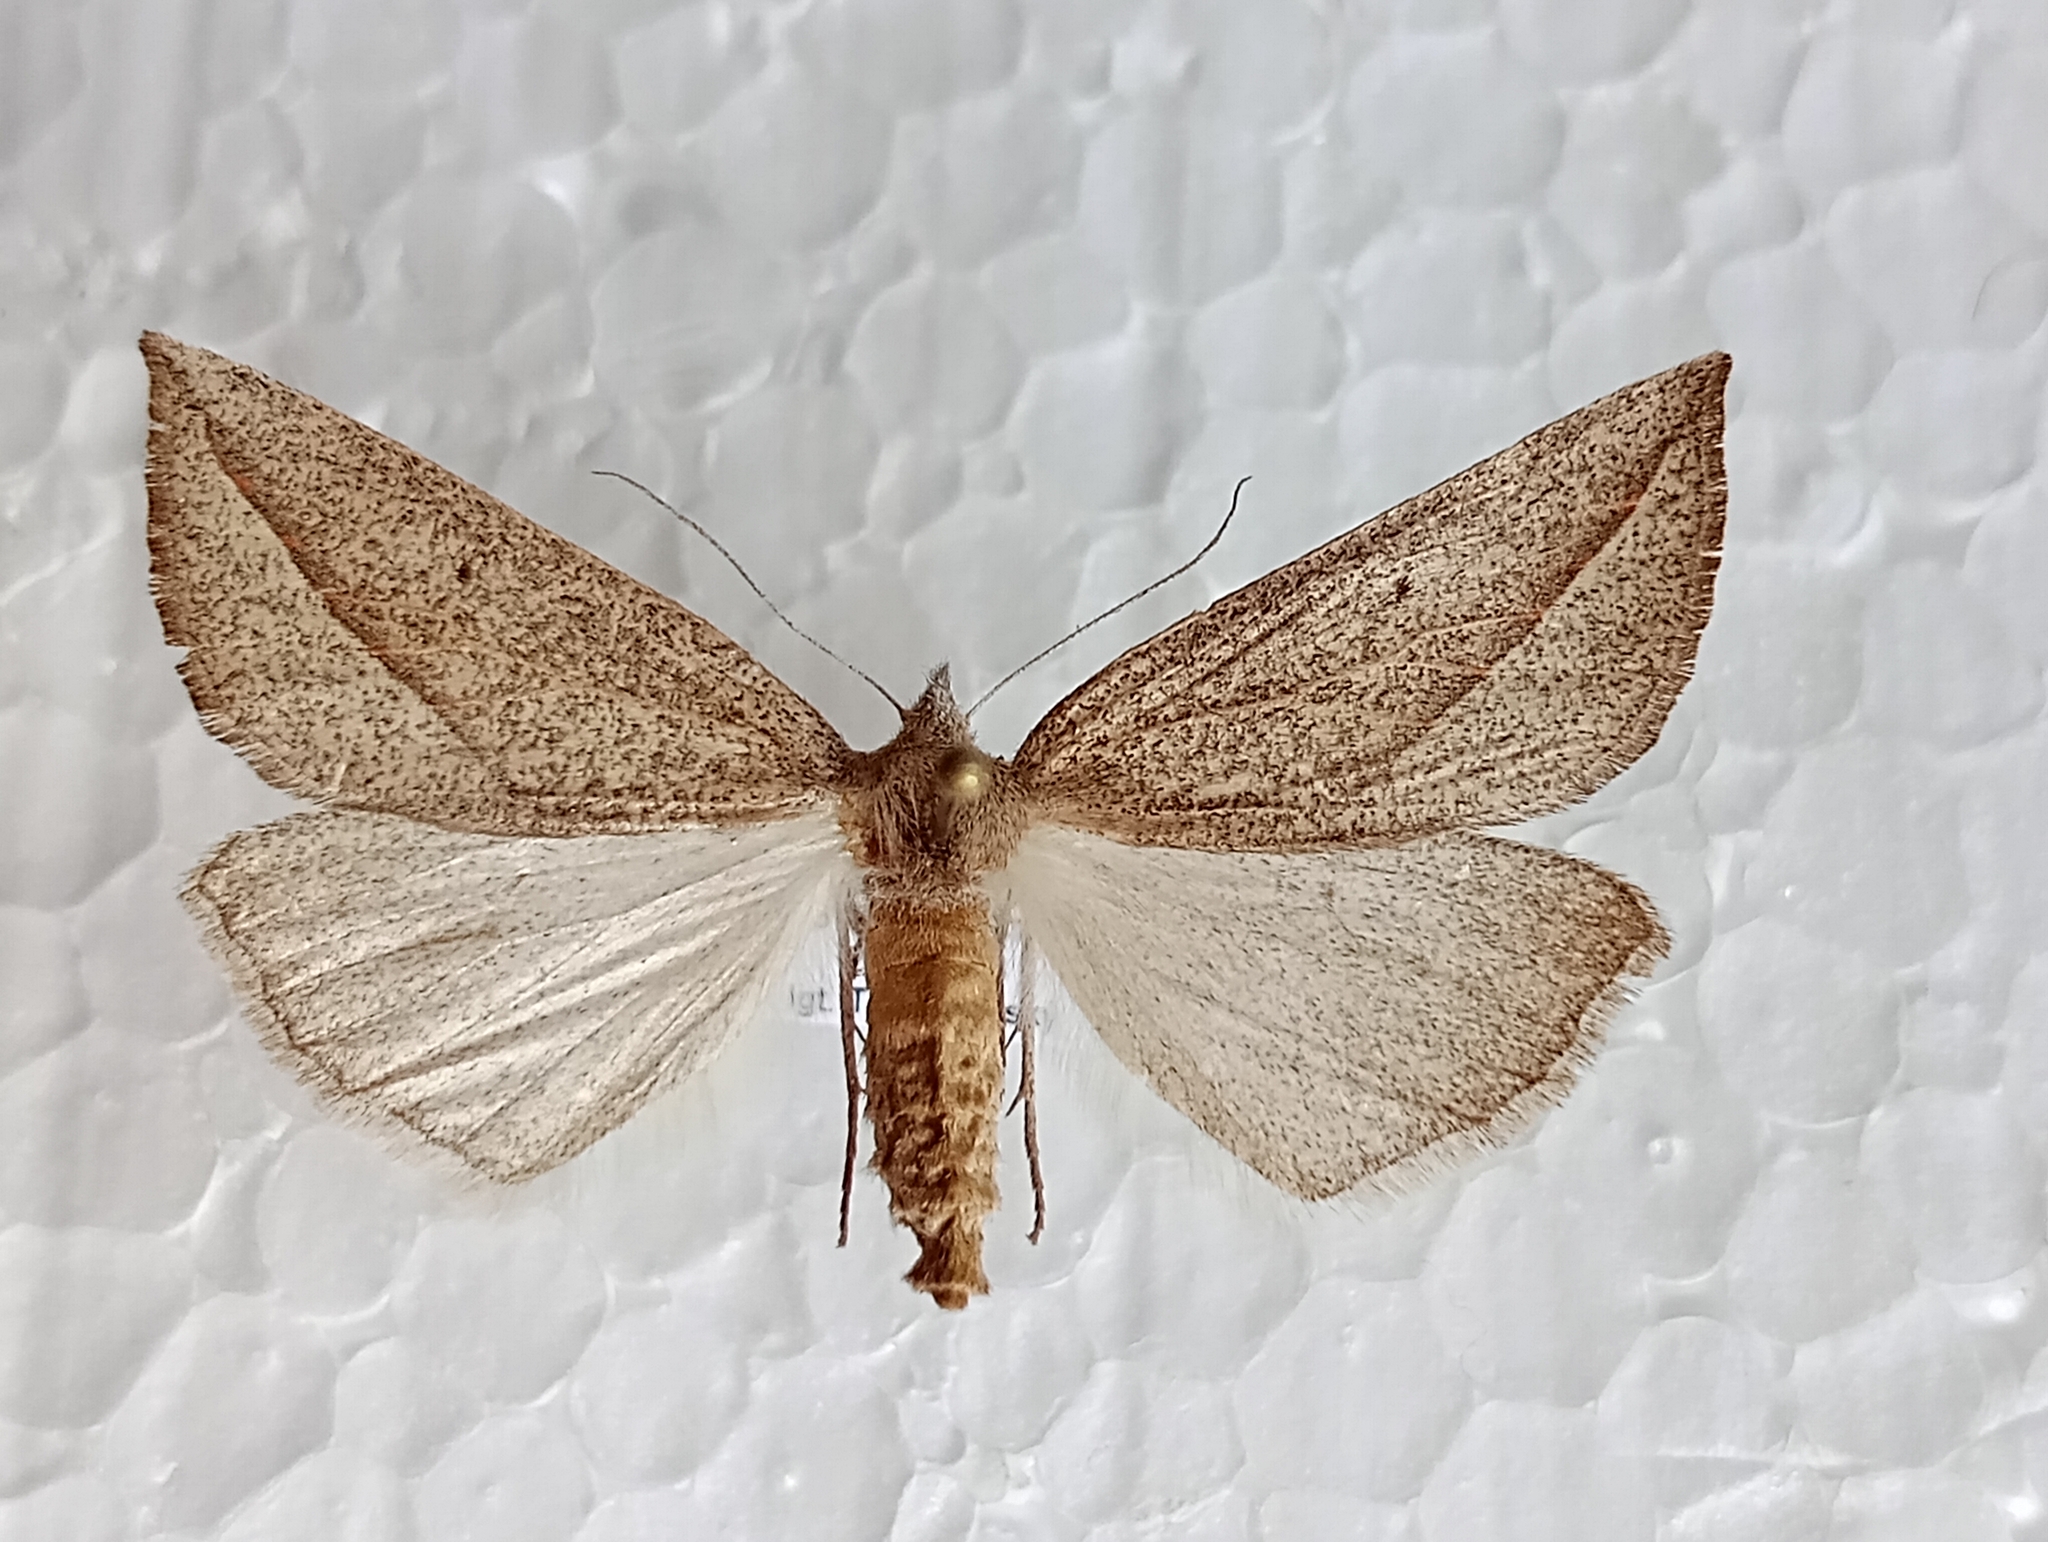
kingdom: Animalia
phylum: Arthropoda
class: Insecta
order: Lepidoptera
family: Geometridae
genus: Compsoptera
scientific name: Compsoptera opacaria
